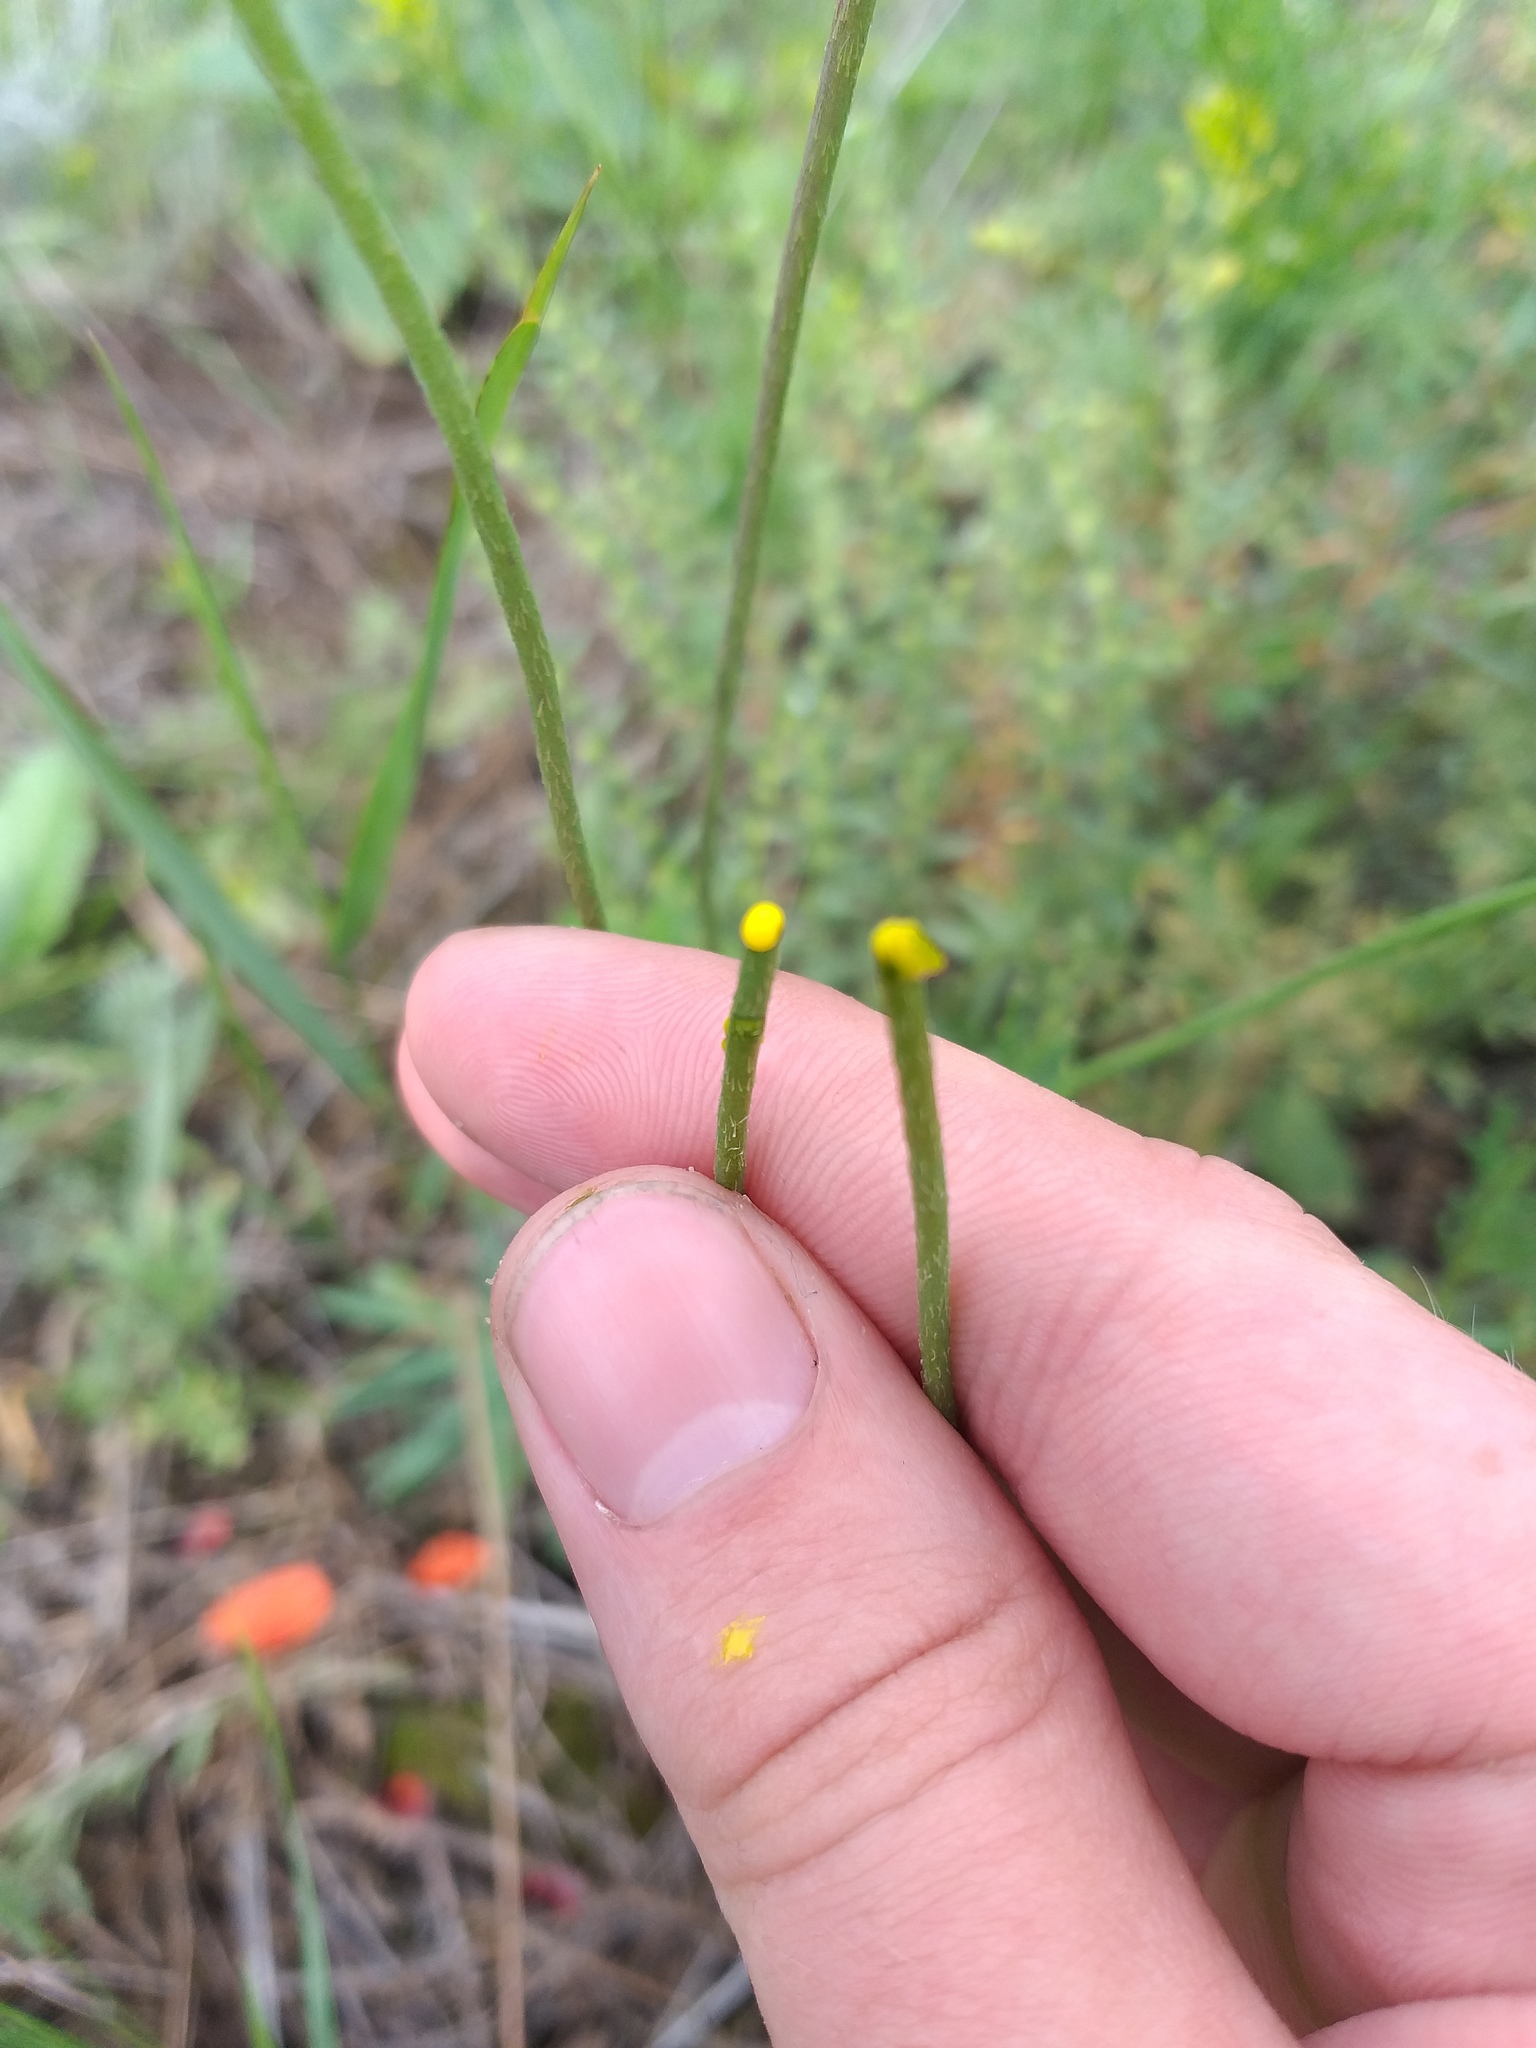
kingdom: Plantae
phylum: Tracheophyta
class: Magnoliopsida
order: Ranunculales
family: Papaveraceae
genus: Papaver
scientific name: Papaver dubium
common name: Long-headed poppy
